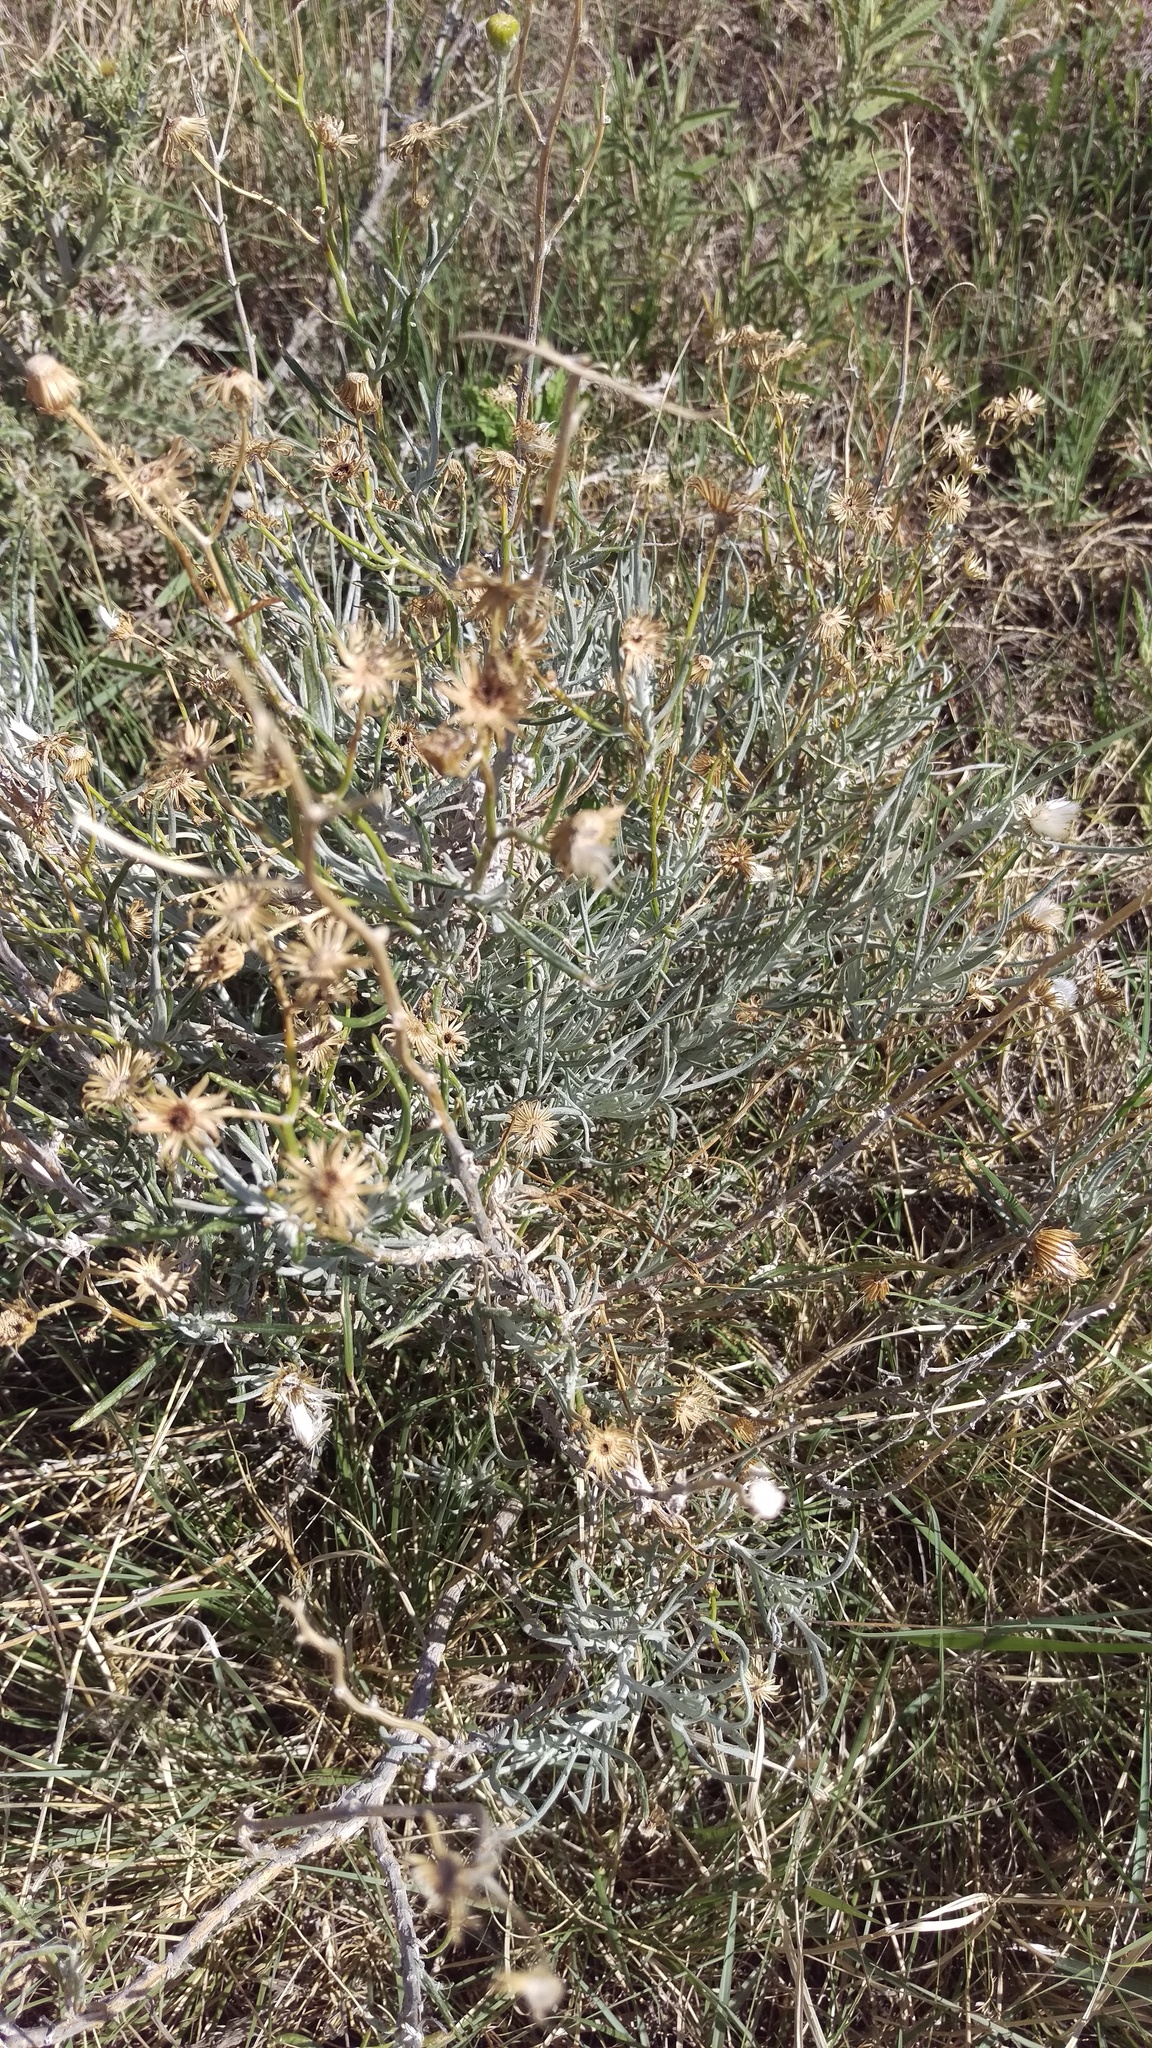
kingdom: Plantae
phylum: Tracheophyta
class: Magnoliopsida
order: Asterales
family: Asteraceae
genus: Senecio
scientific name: Senecio flaccidus
